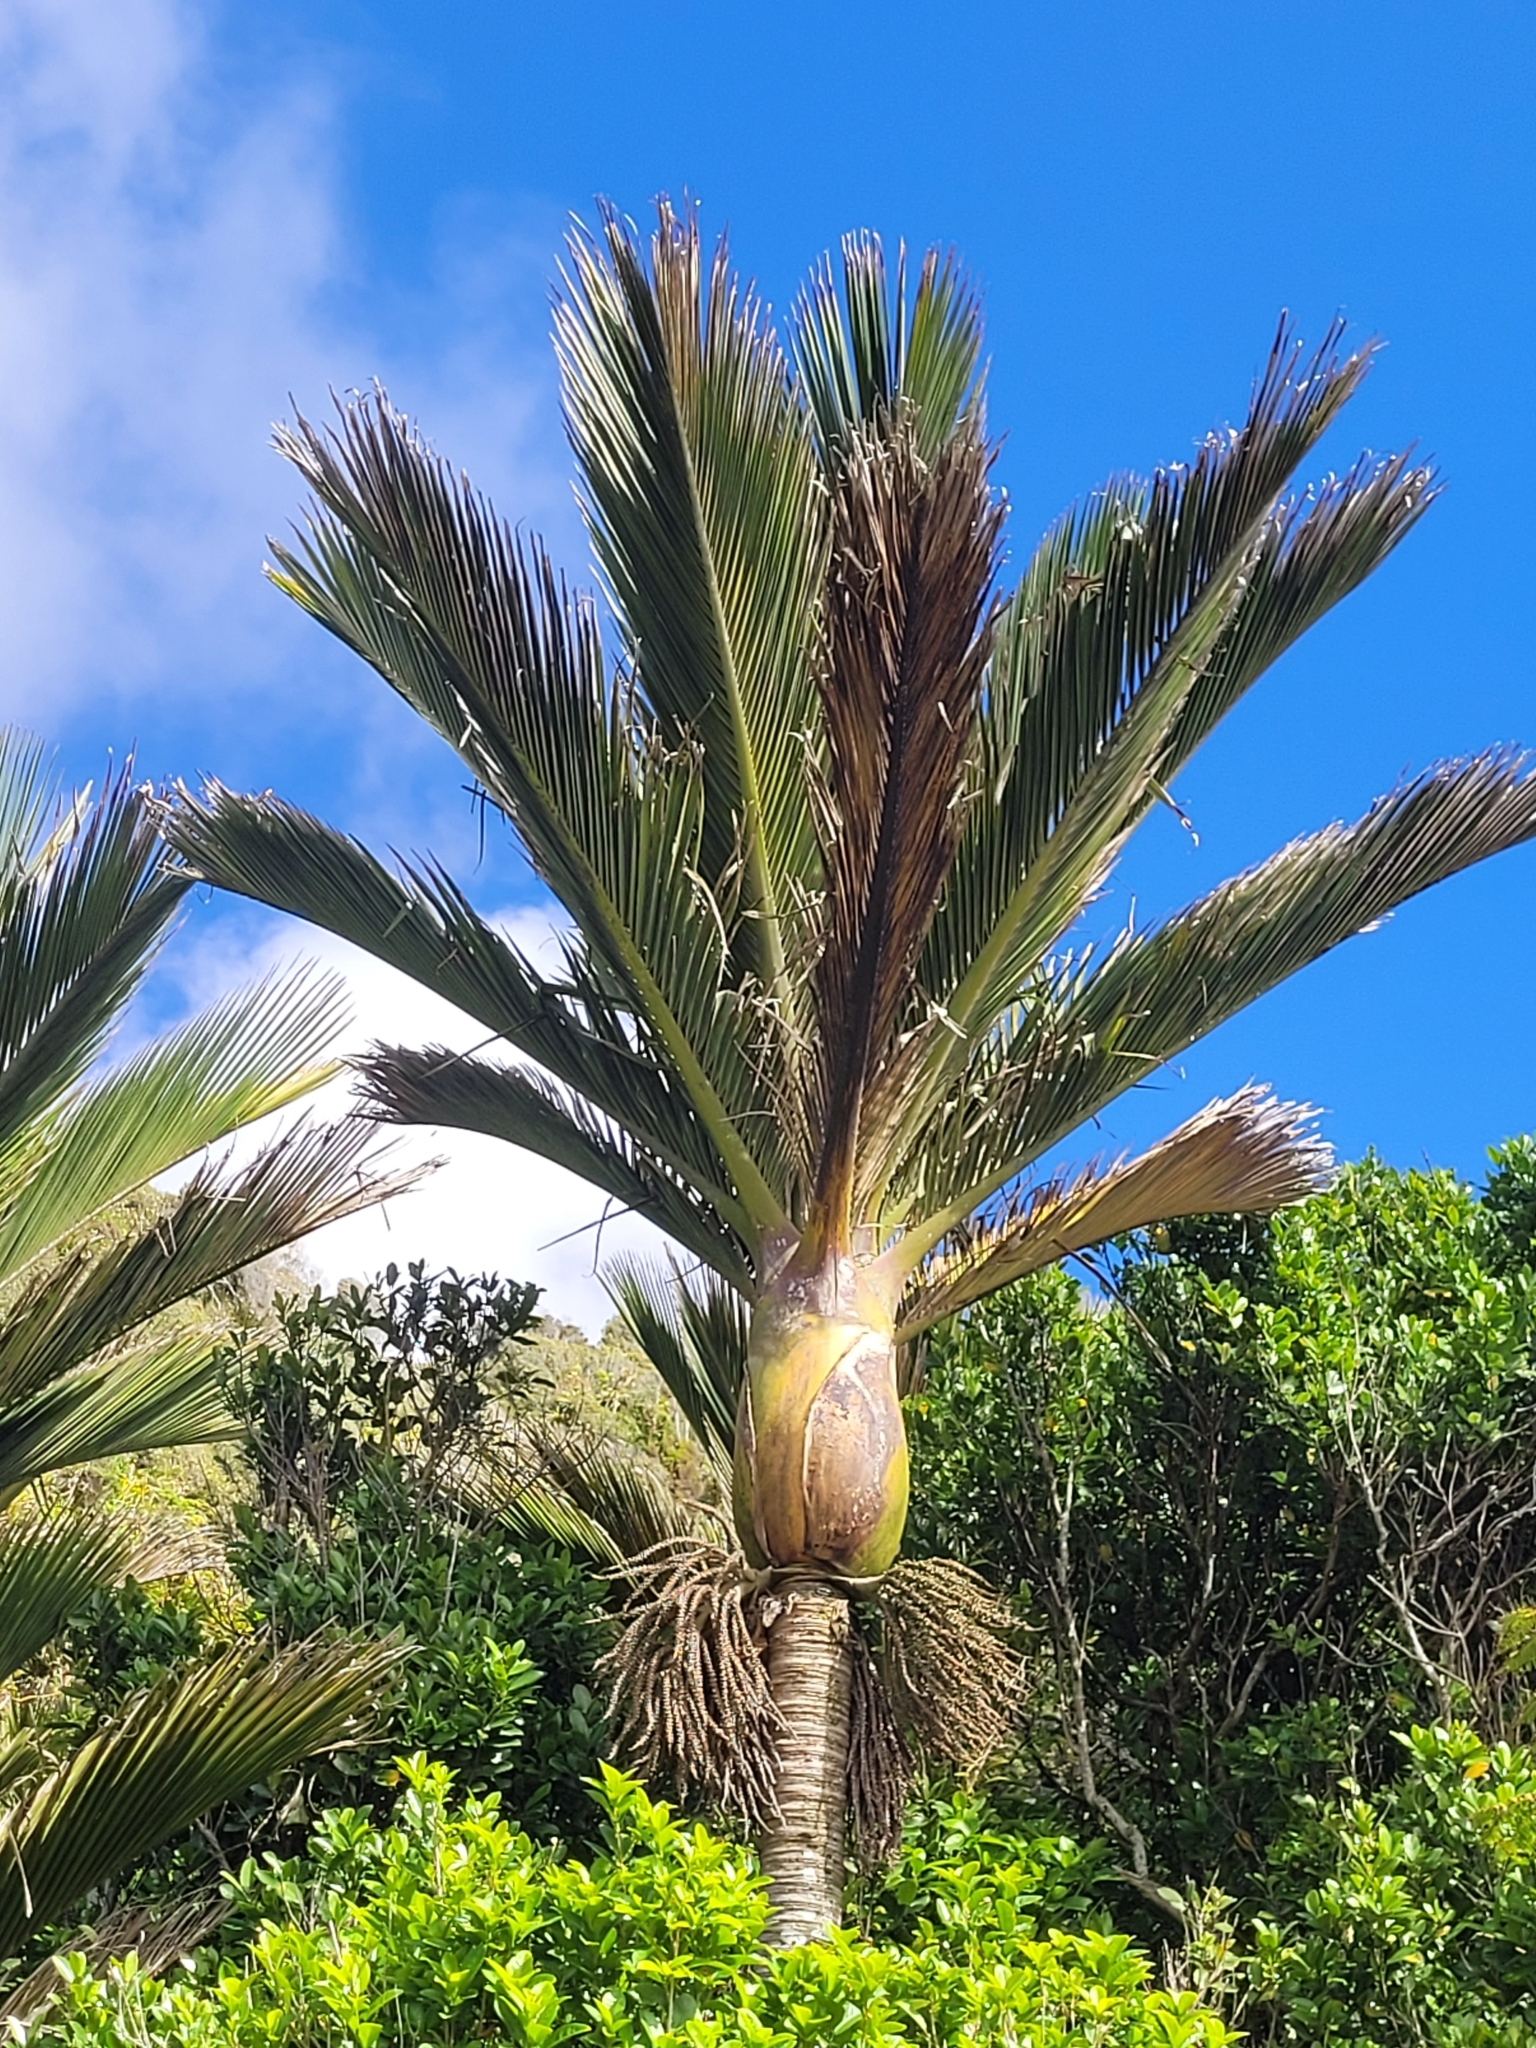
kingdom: Plantae
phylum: Tracheophyta
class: Liliopsida
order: Arecales
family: Arecaceae
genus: Rhopalostylis
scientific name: Rhopalostylis sapida
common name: Feather-duster palm
